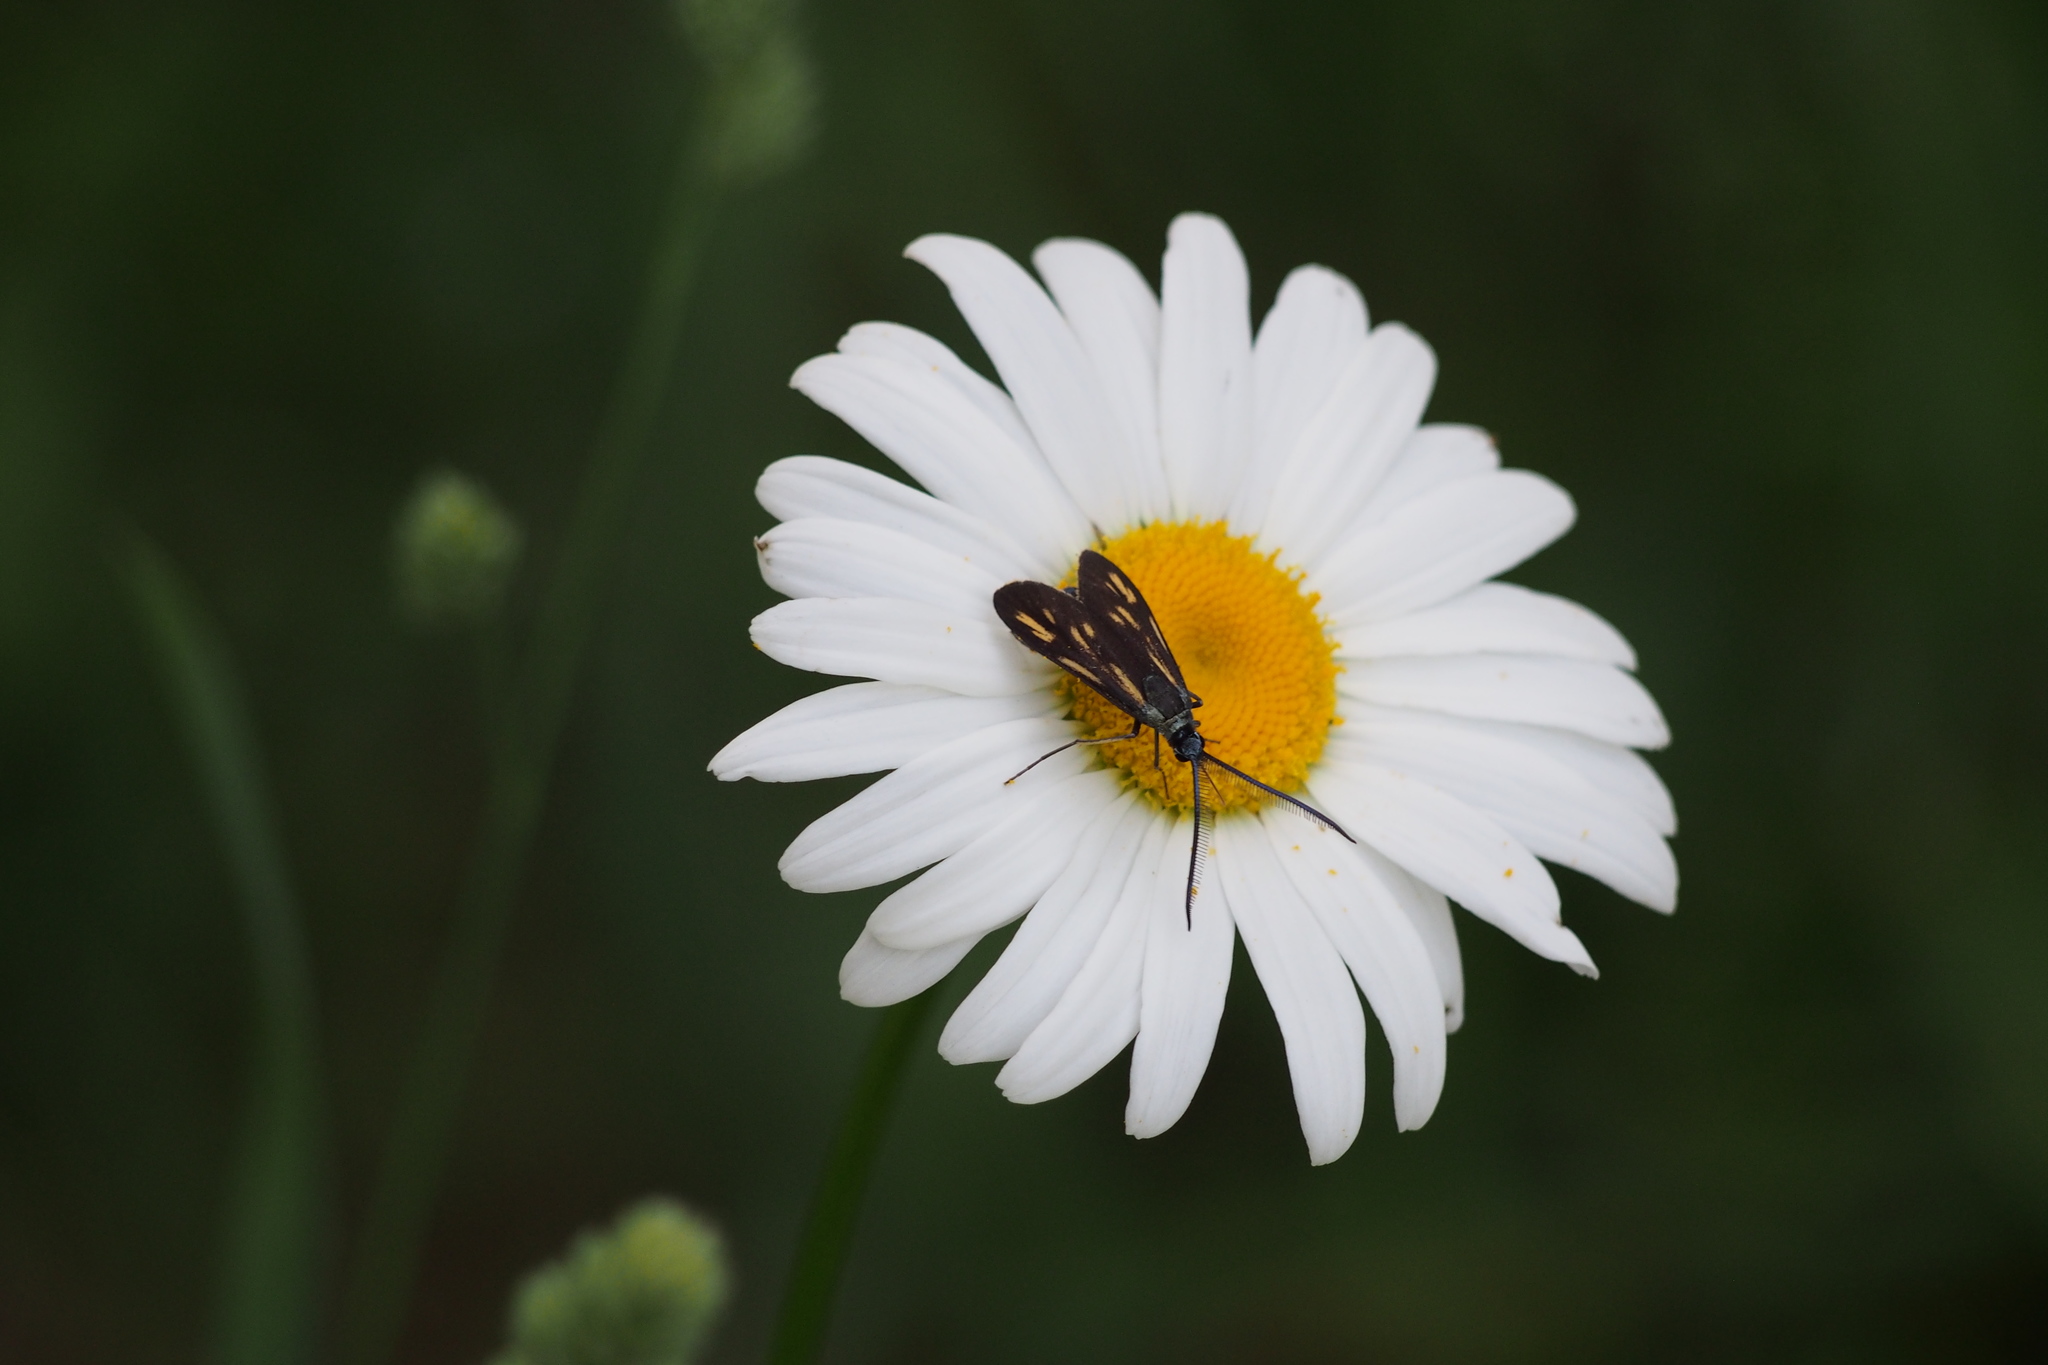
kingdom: Animalia
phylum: Arthropoda
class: Insecta
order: Lepidoptera
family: Zygaenidae
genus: Artona
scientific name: Artona
